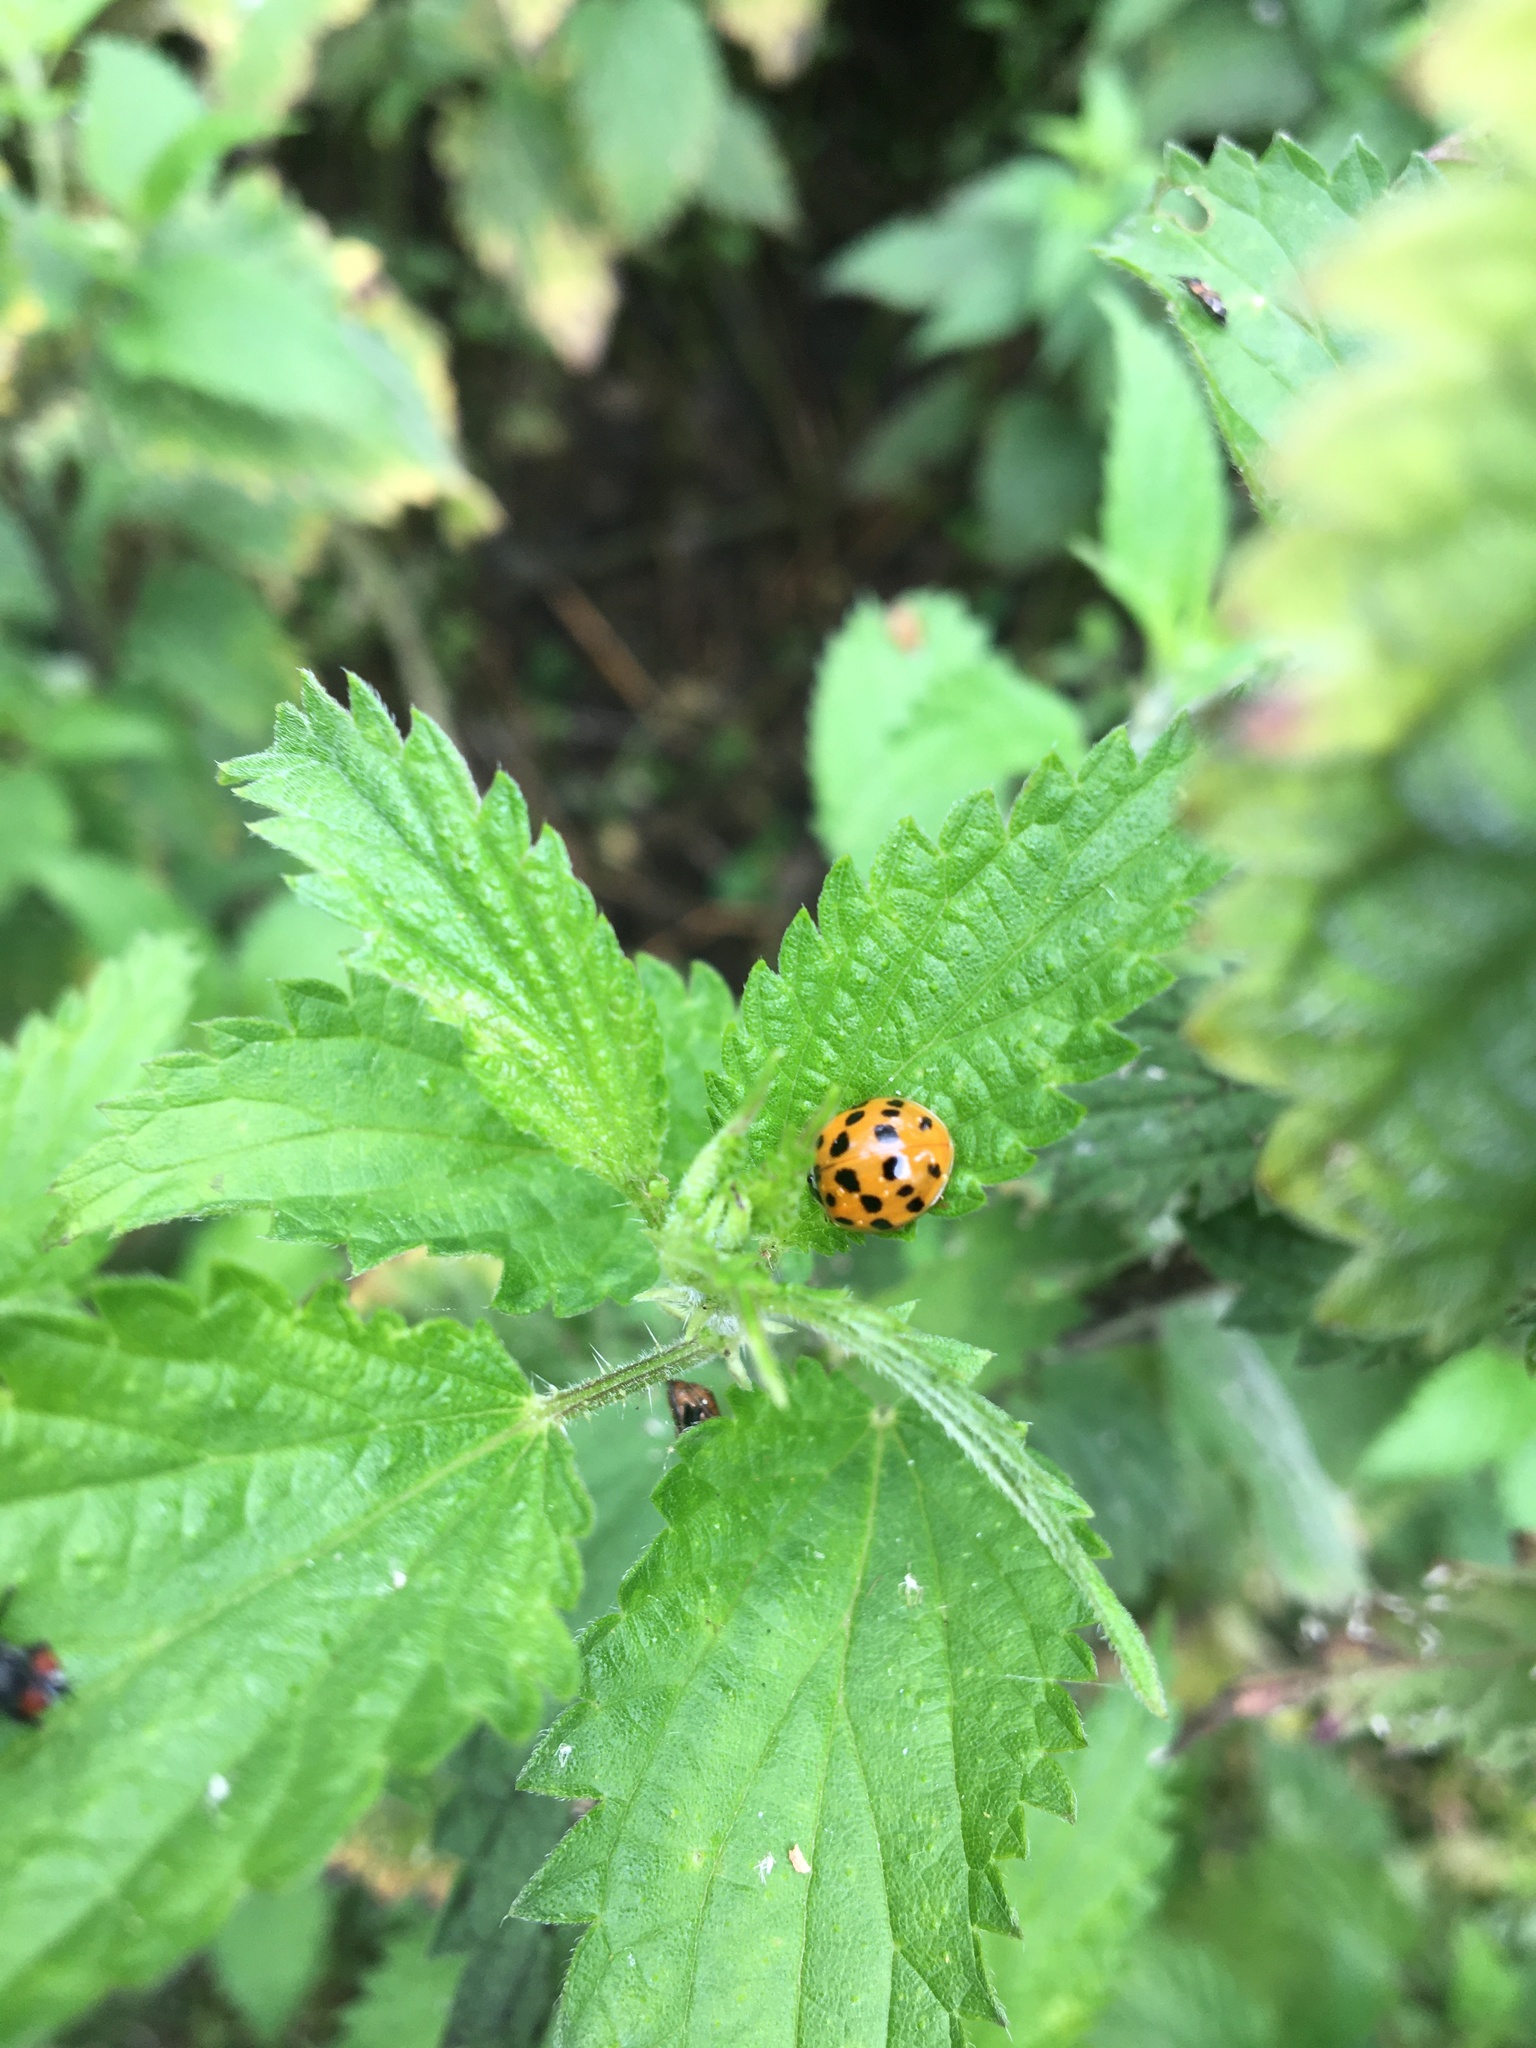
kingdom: Animalia
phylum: Arthropoda
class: Insecta
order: Coleoptera
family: Coccinellidae
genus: Harmonia
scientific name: Harmonia axyridis
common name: Harlequin ladybird
